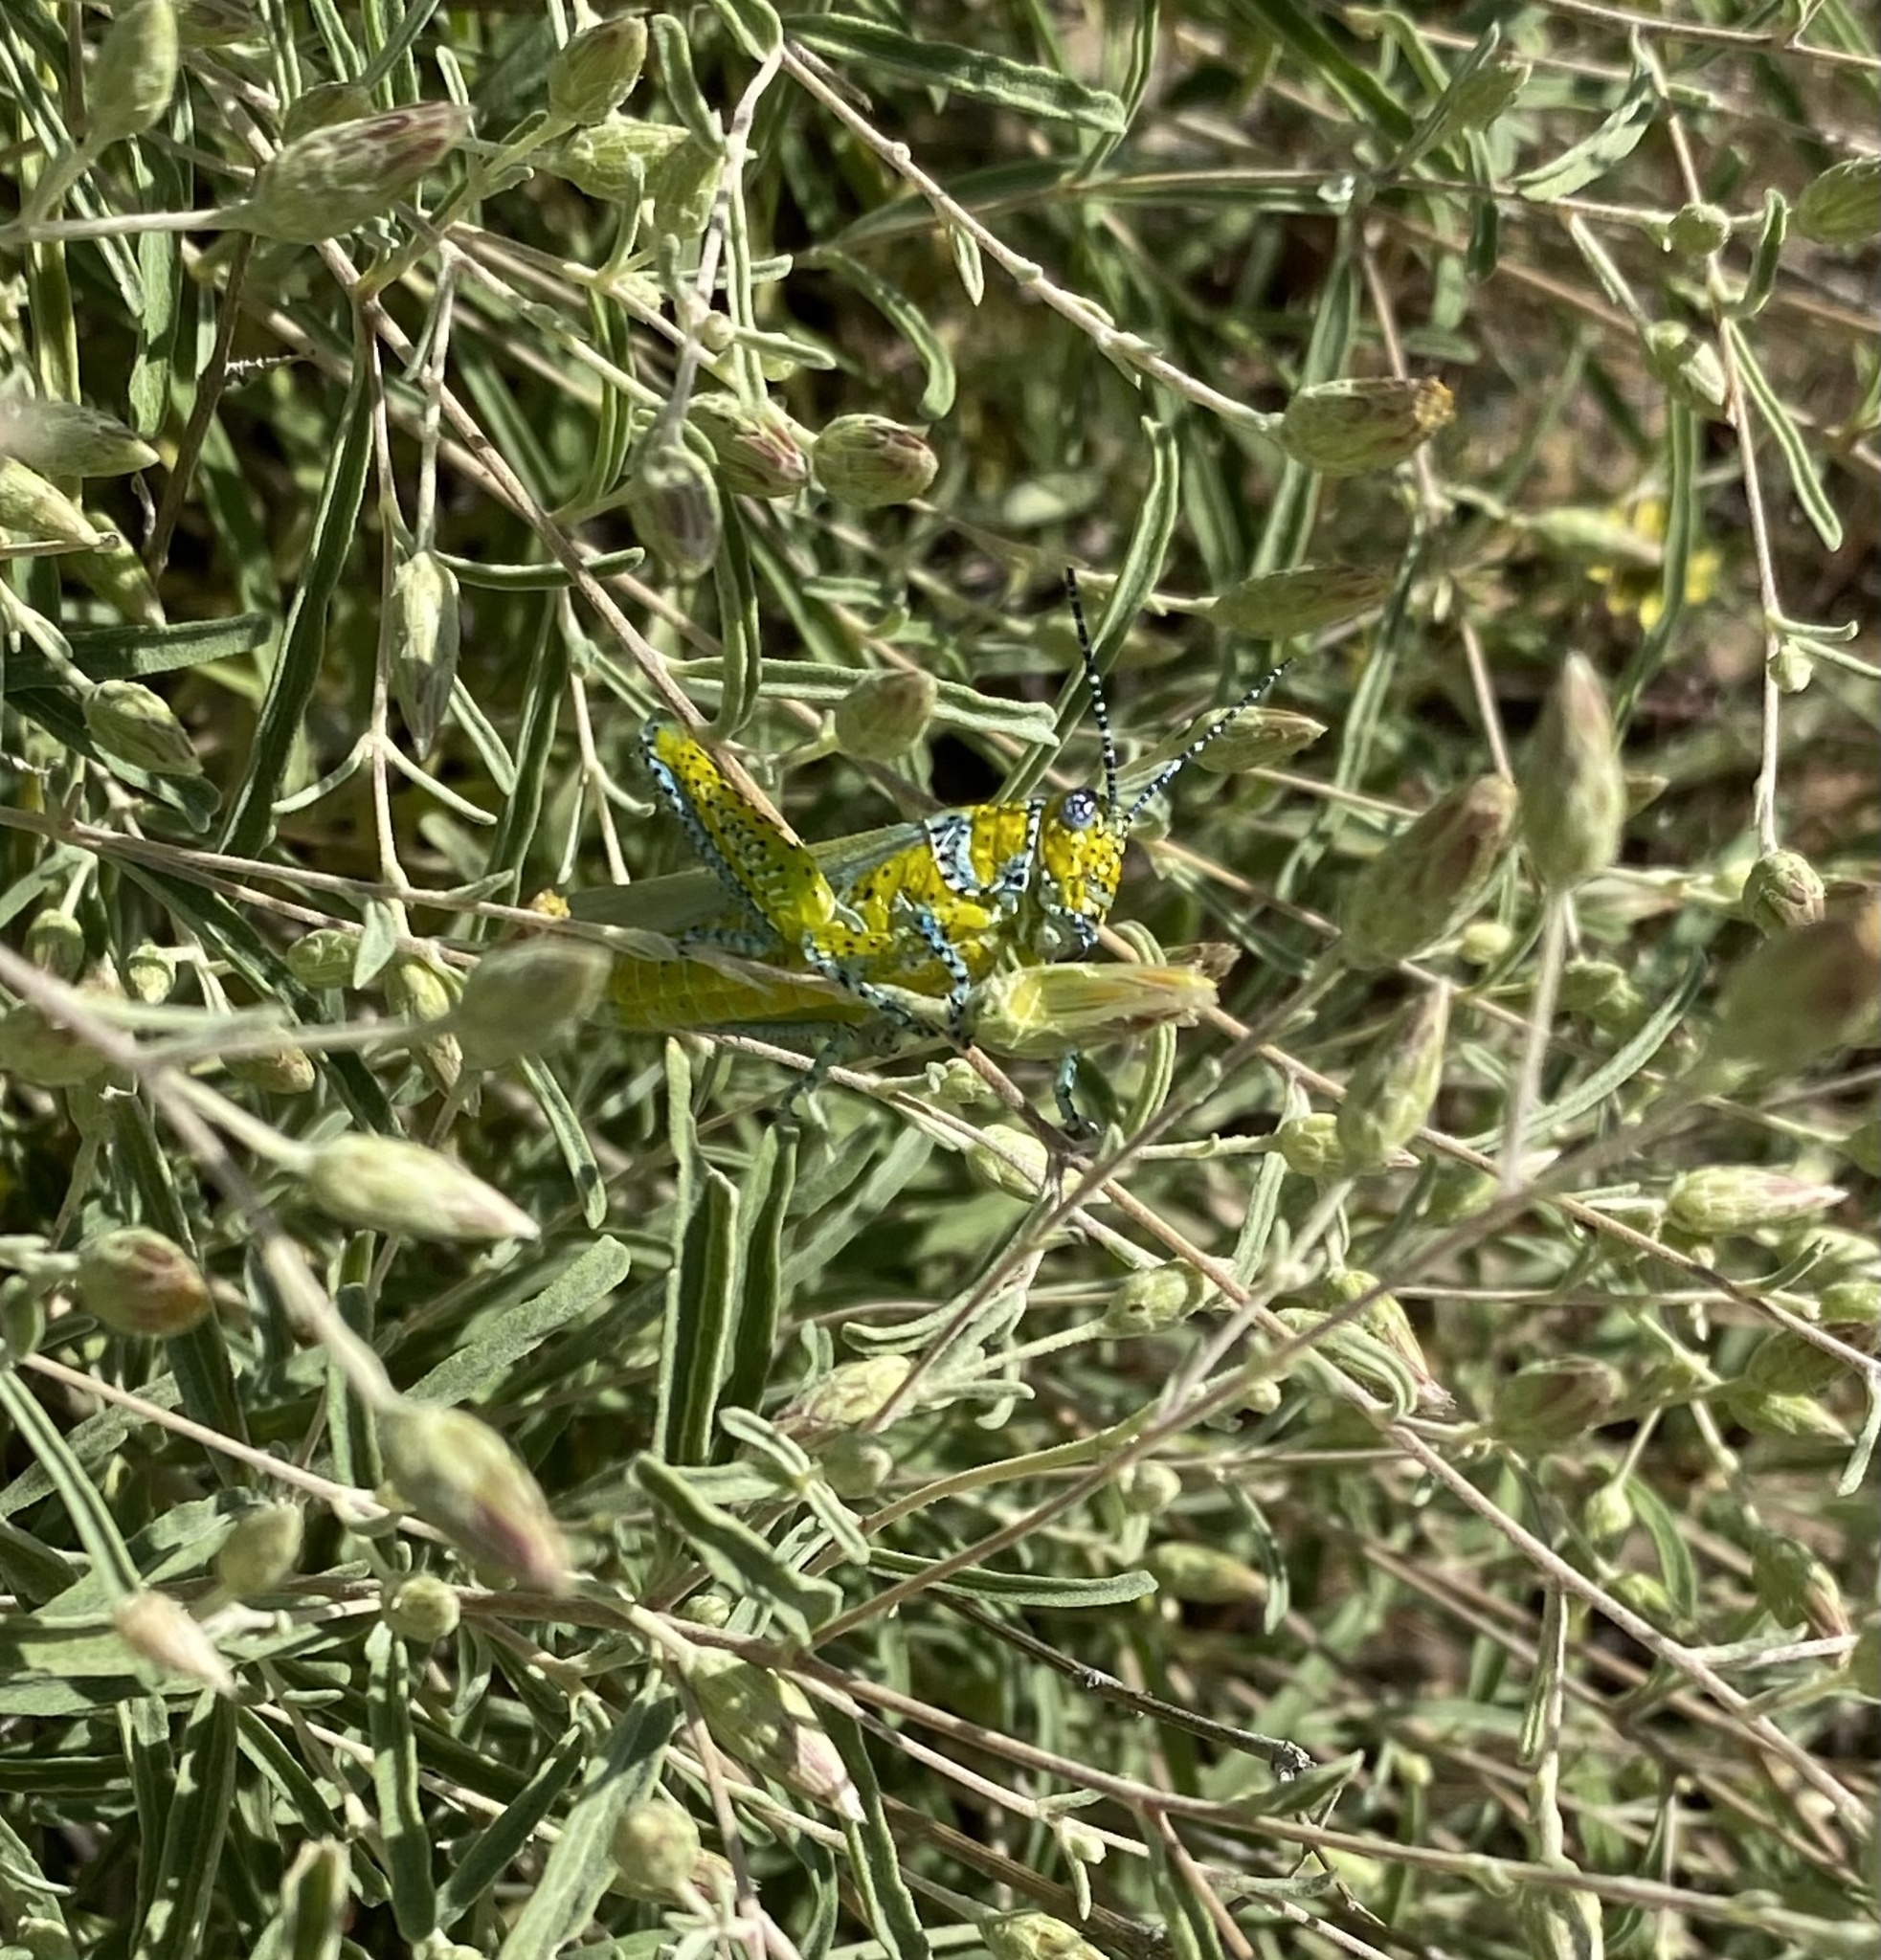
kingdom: Animalia
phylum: Arthropoda
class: Insecta
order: Orthoptera
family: Acrididae
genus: Poecilotettix
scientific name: Poecilotettix pantherinus
